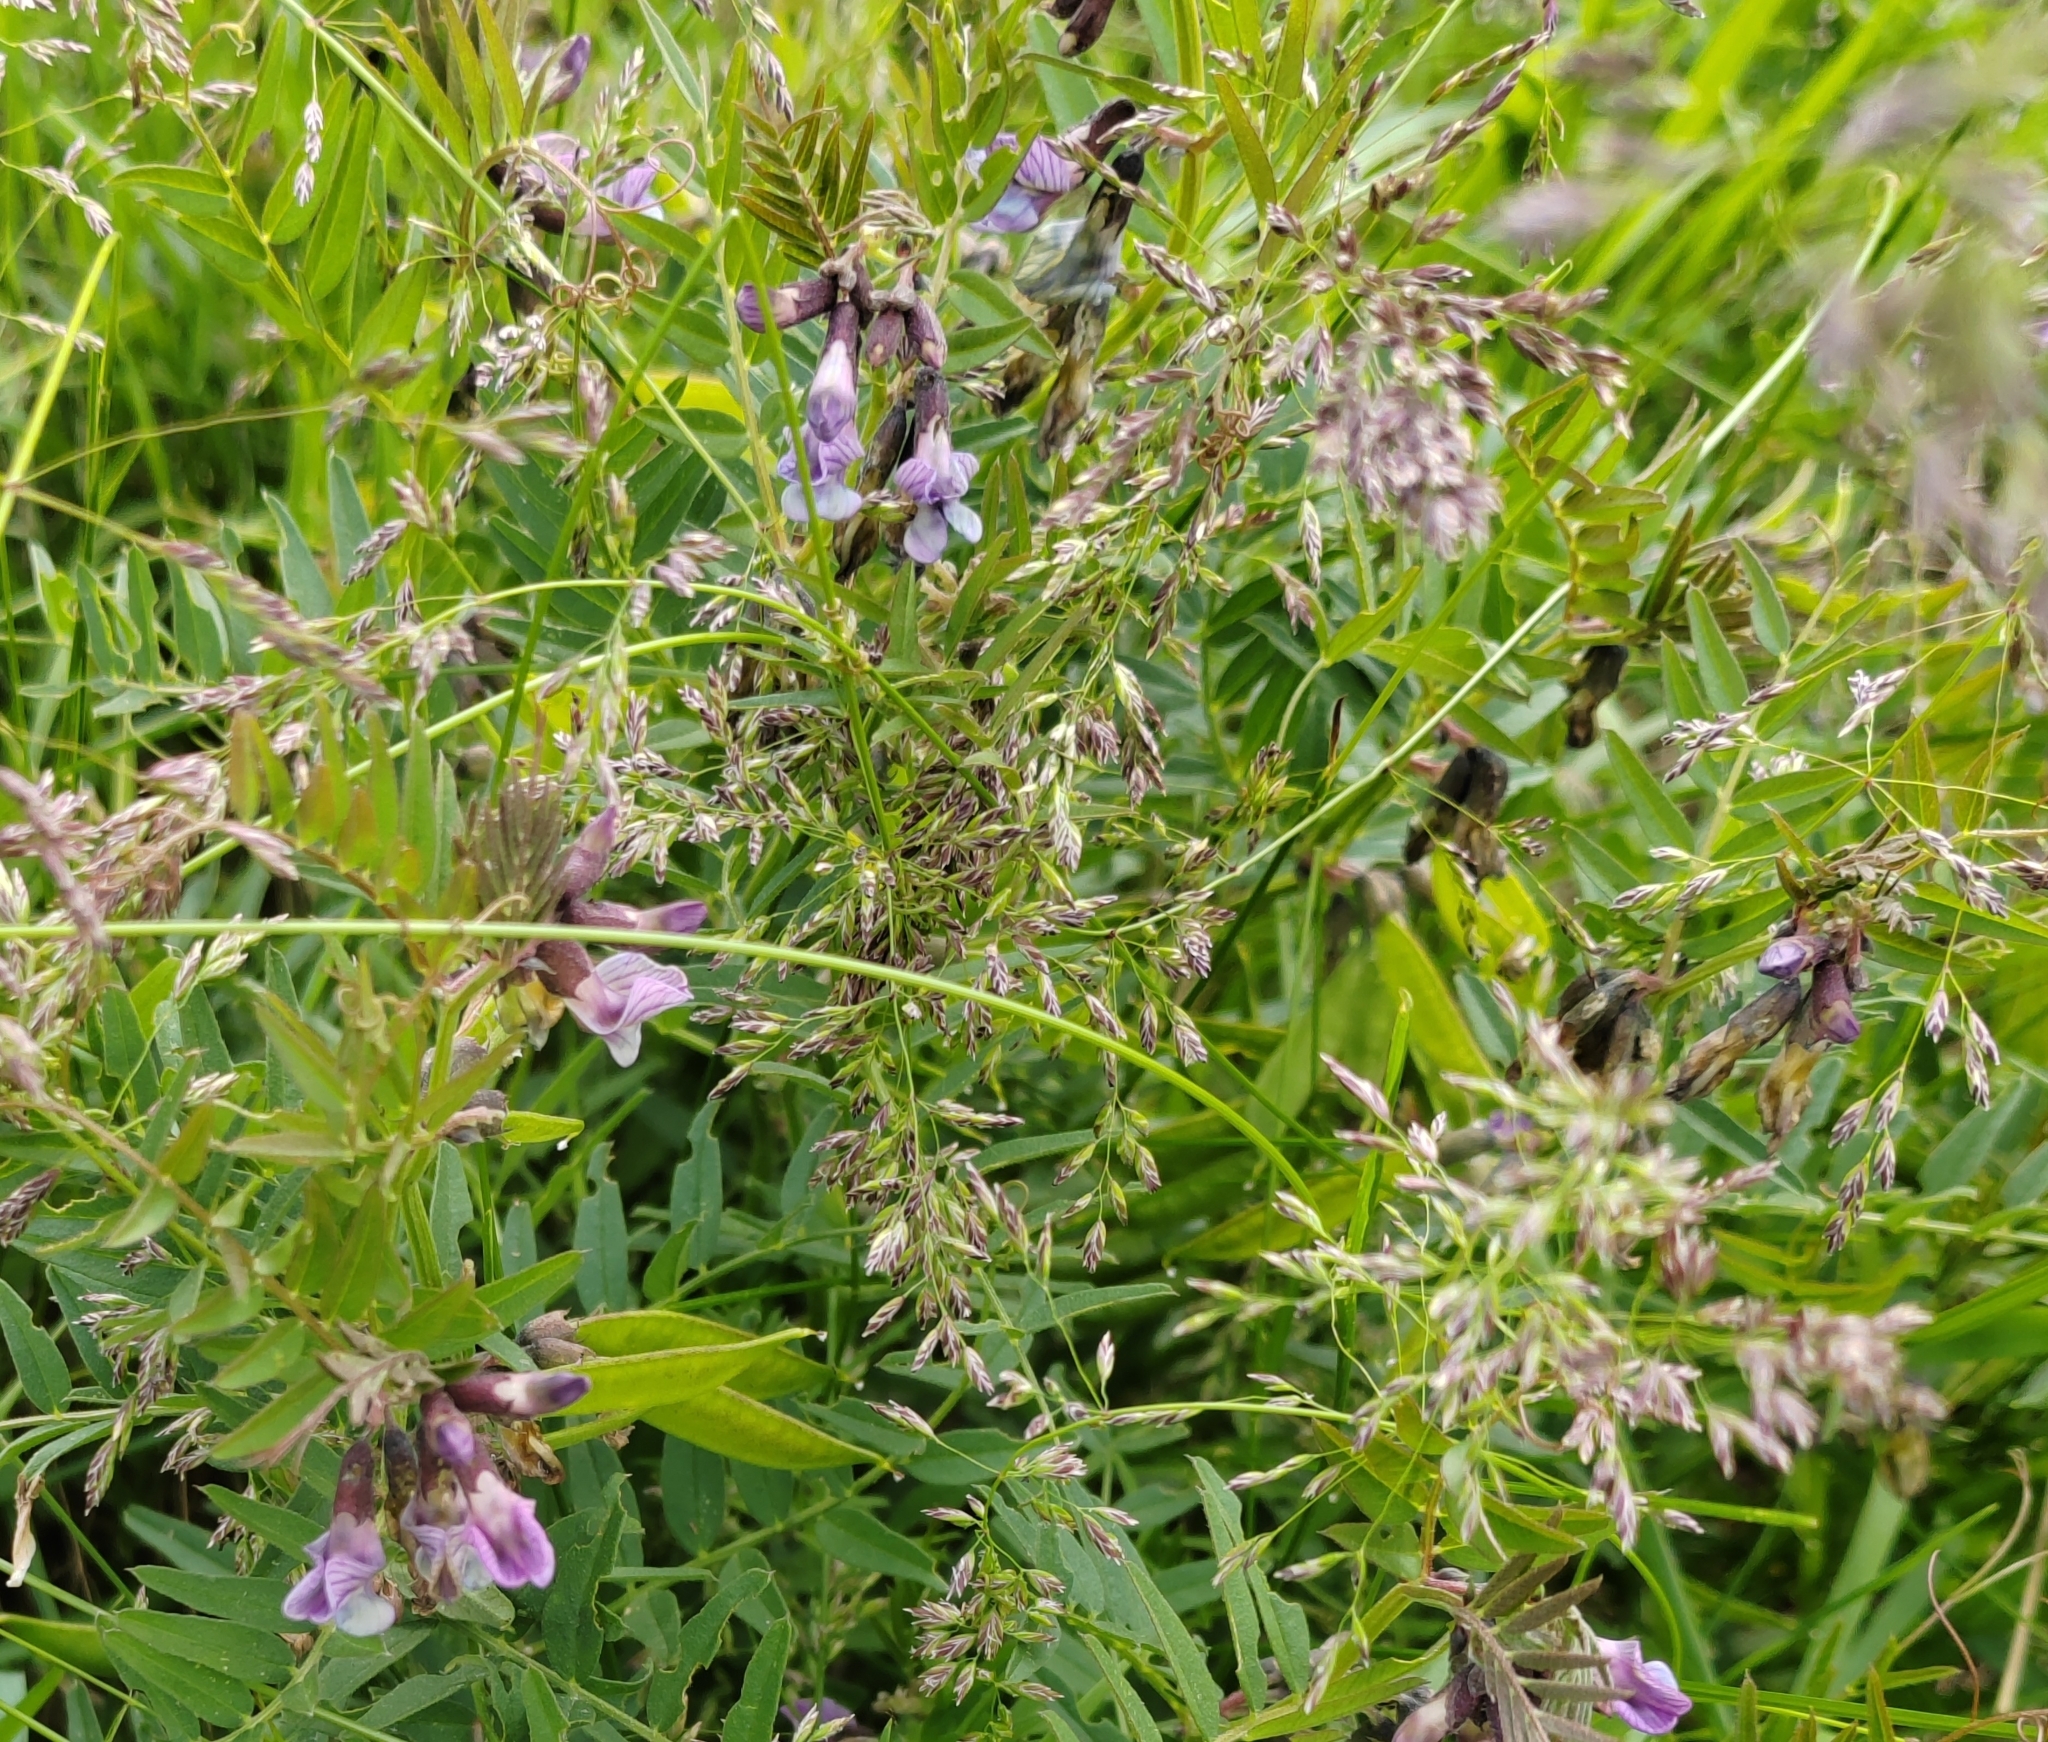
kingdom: Plantae
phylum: Tracheophyta
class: Magnoliopsida
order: Fabales
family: Fabaceae
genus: Vicia
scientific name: Vicia sepium
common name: Bush vetch
